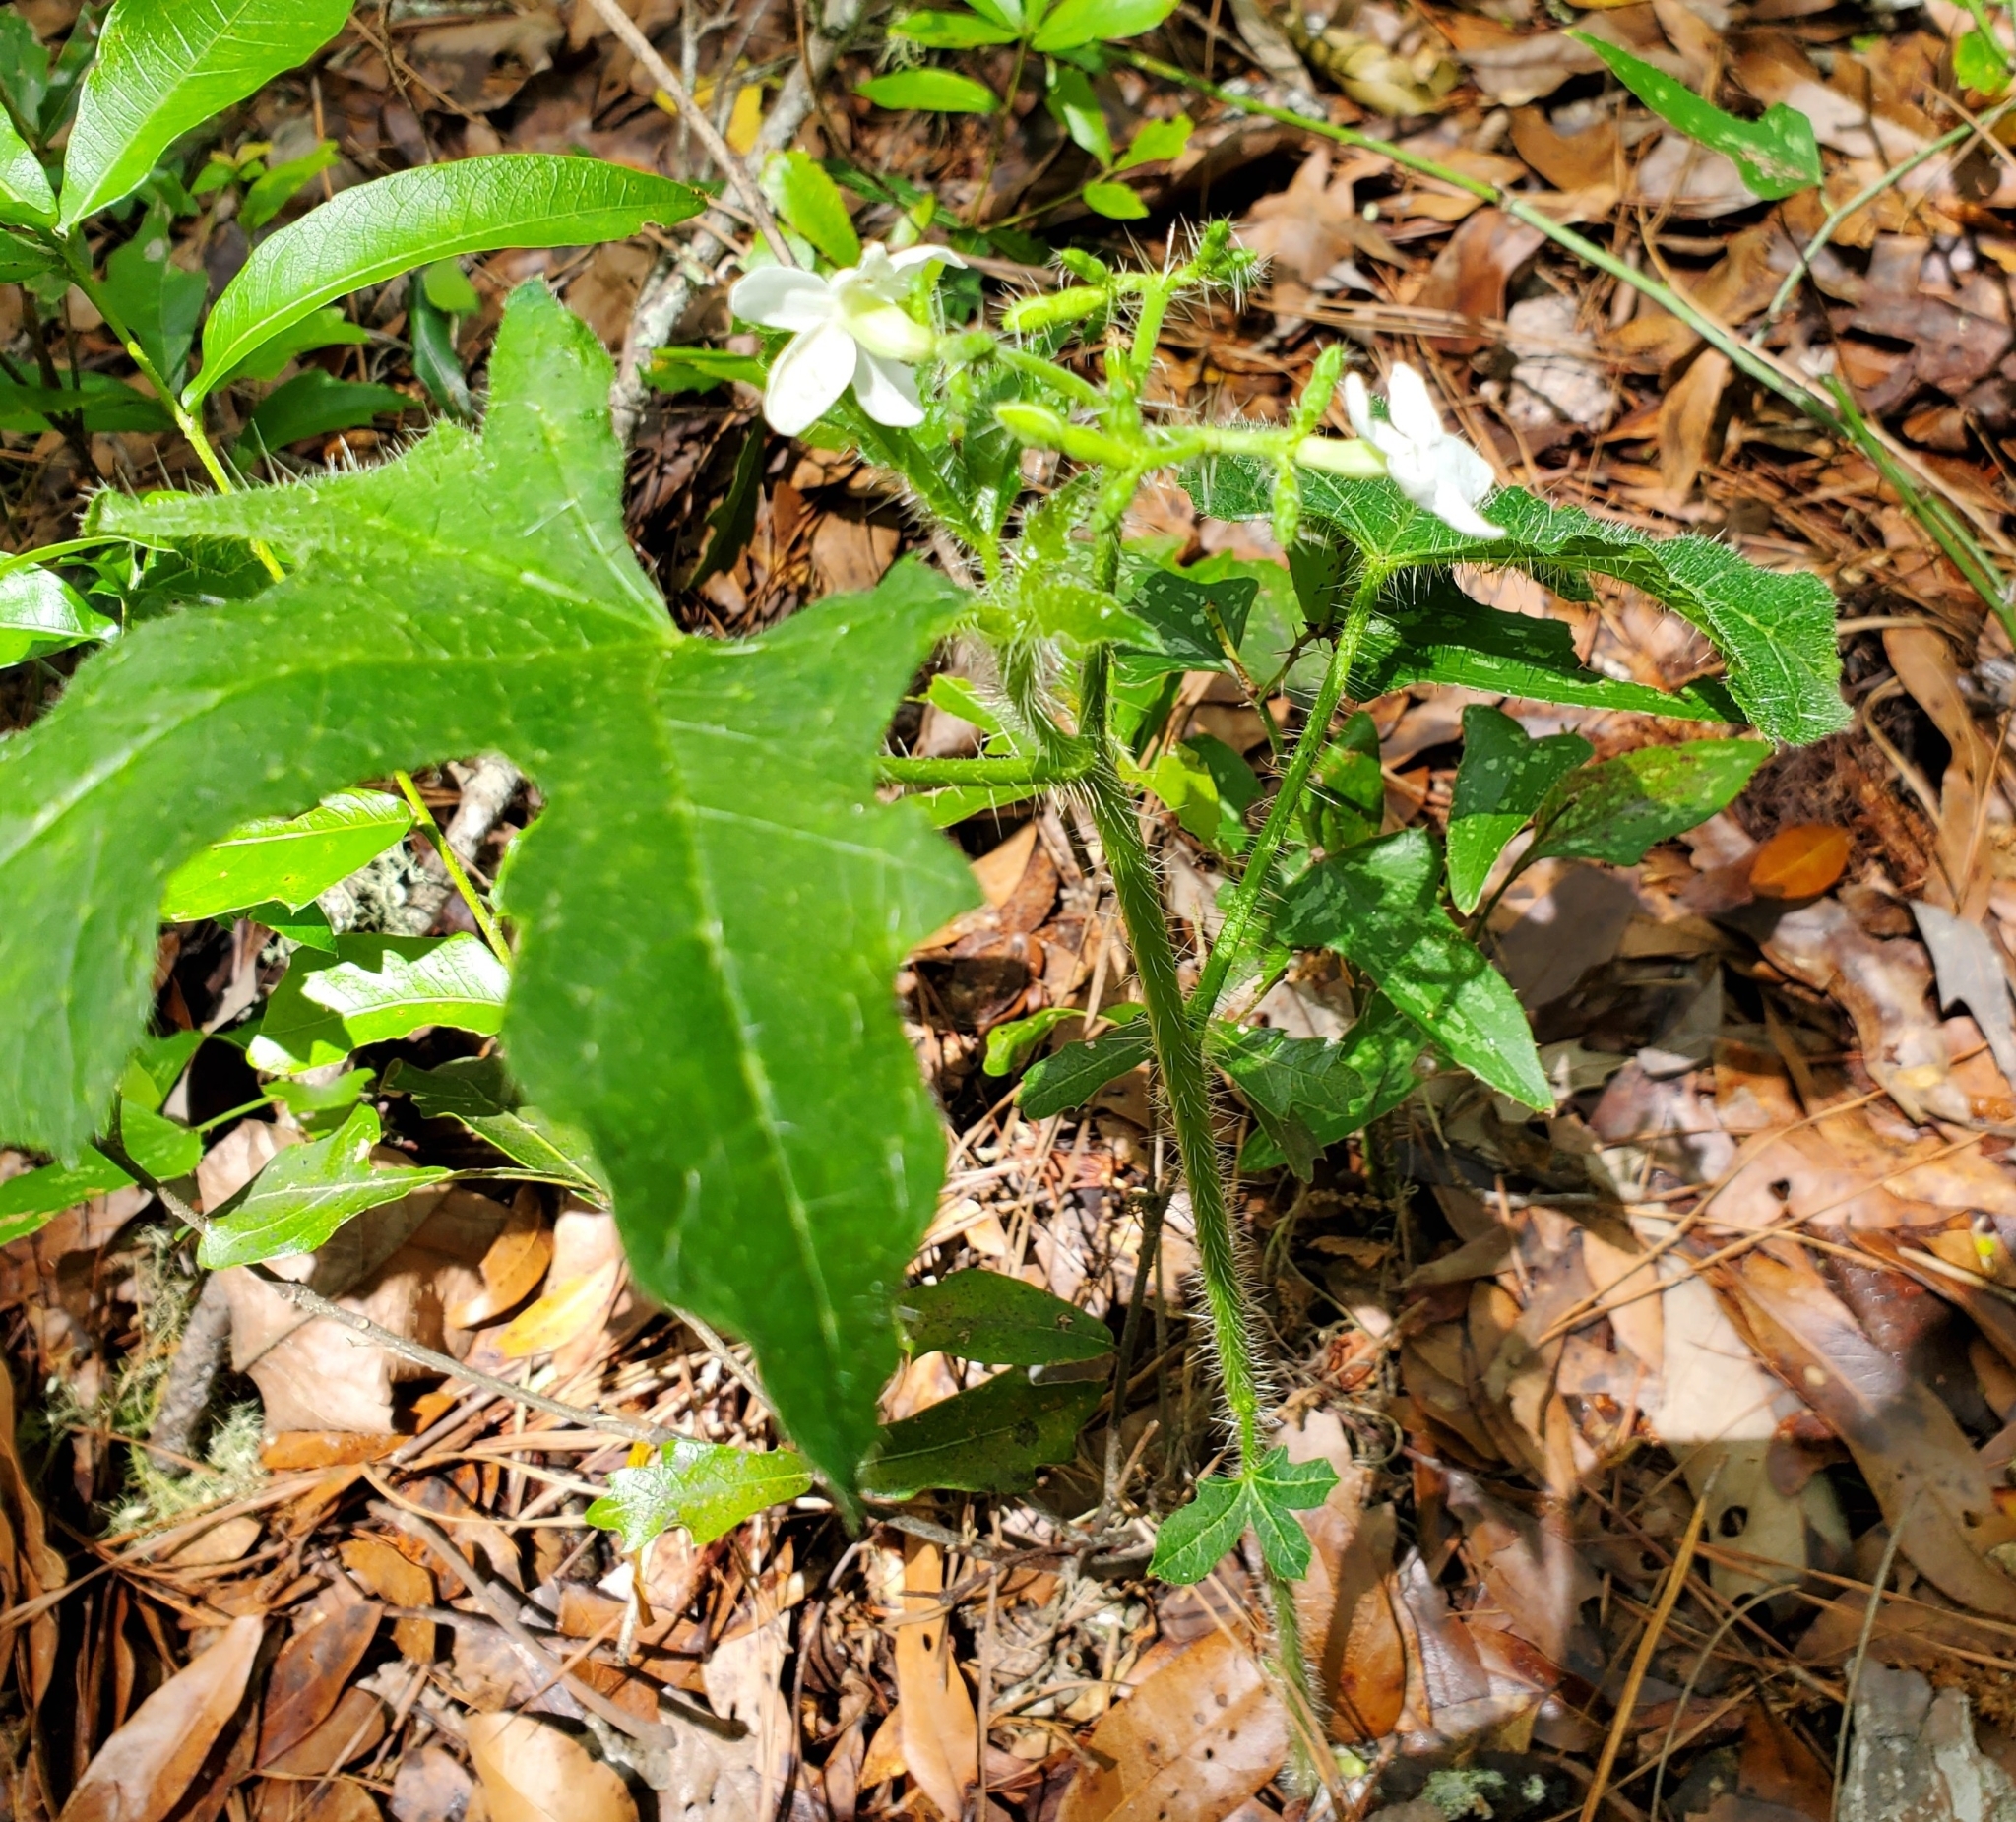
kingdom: Plantae
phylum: Tracheophyta
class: Magnoliopsida
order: Malpighiales
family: Euphorbiaceae
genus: Cnidoscolus
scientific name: Cnidoscolus stimulosus
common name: Bull-nettle
